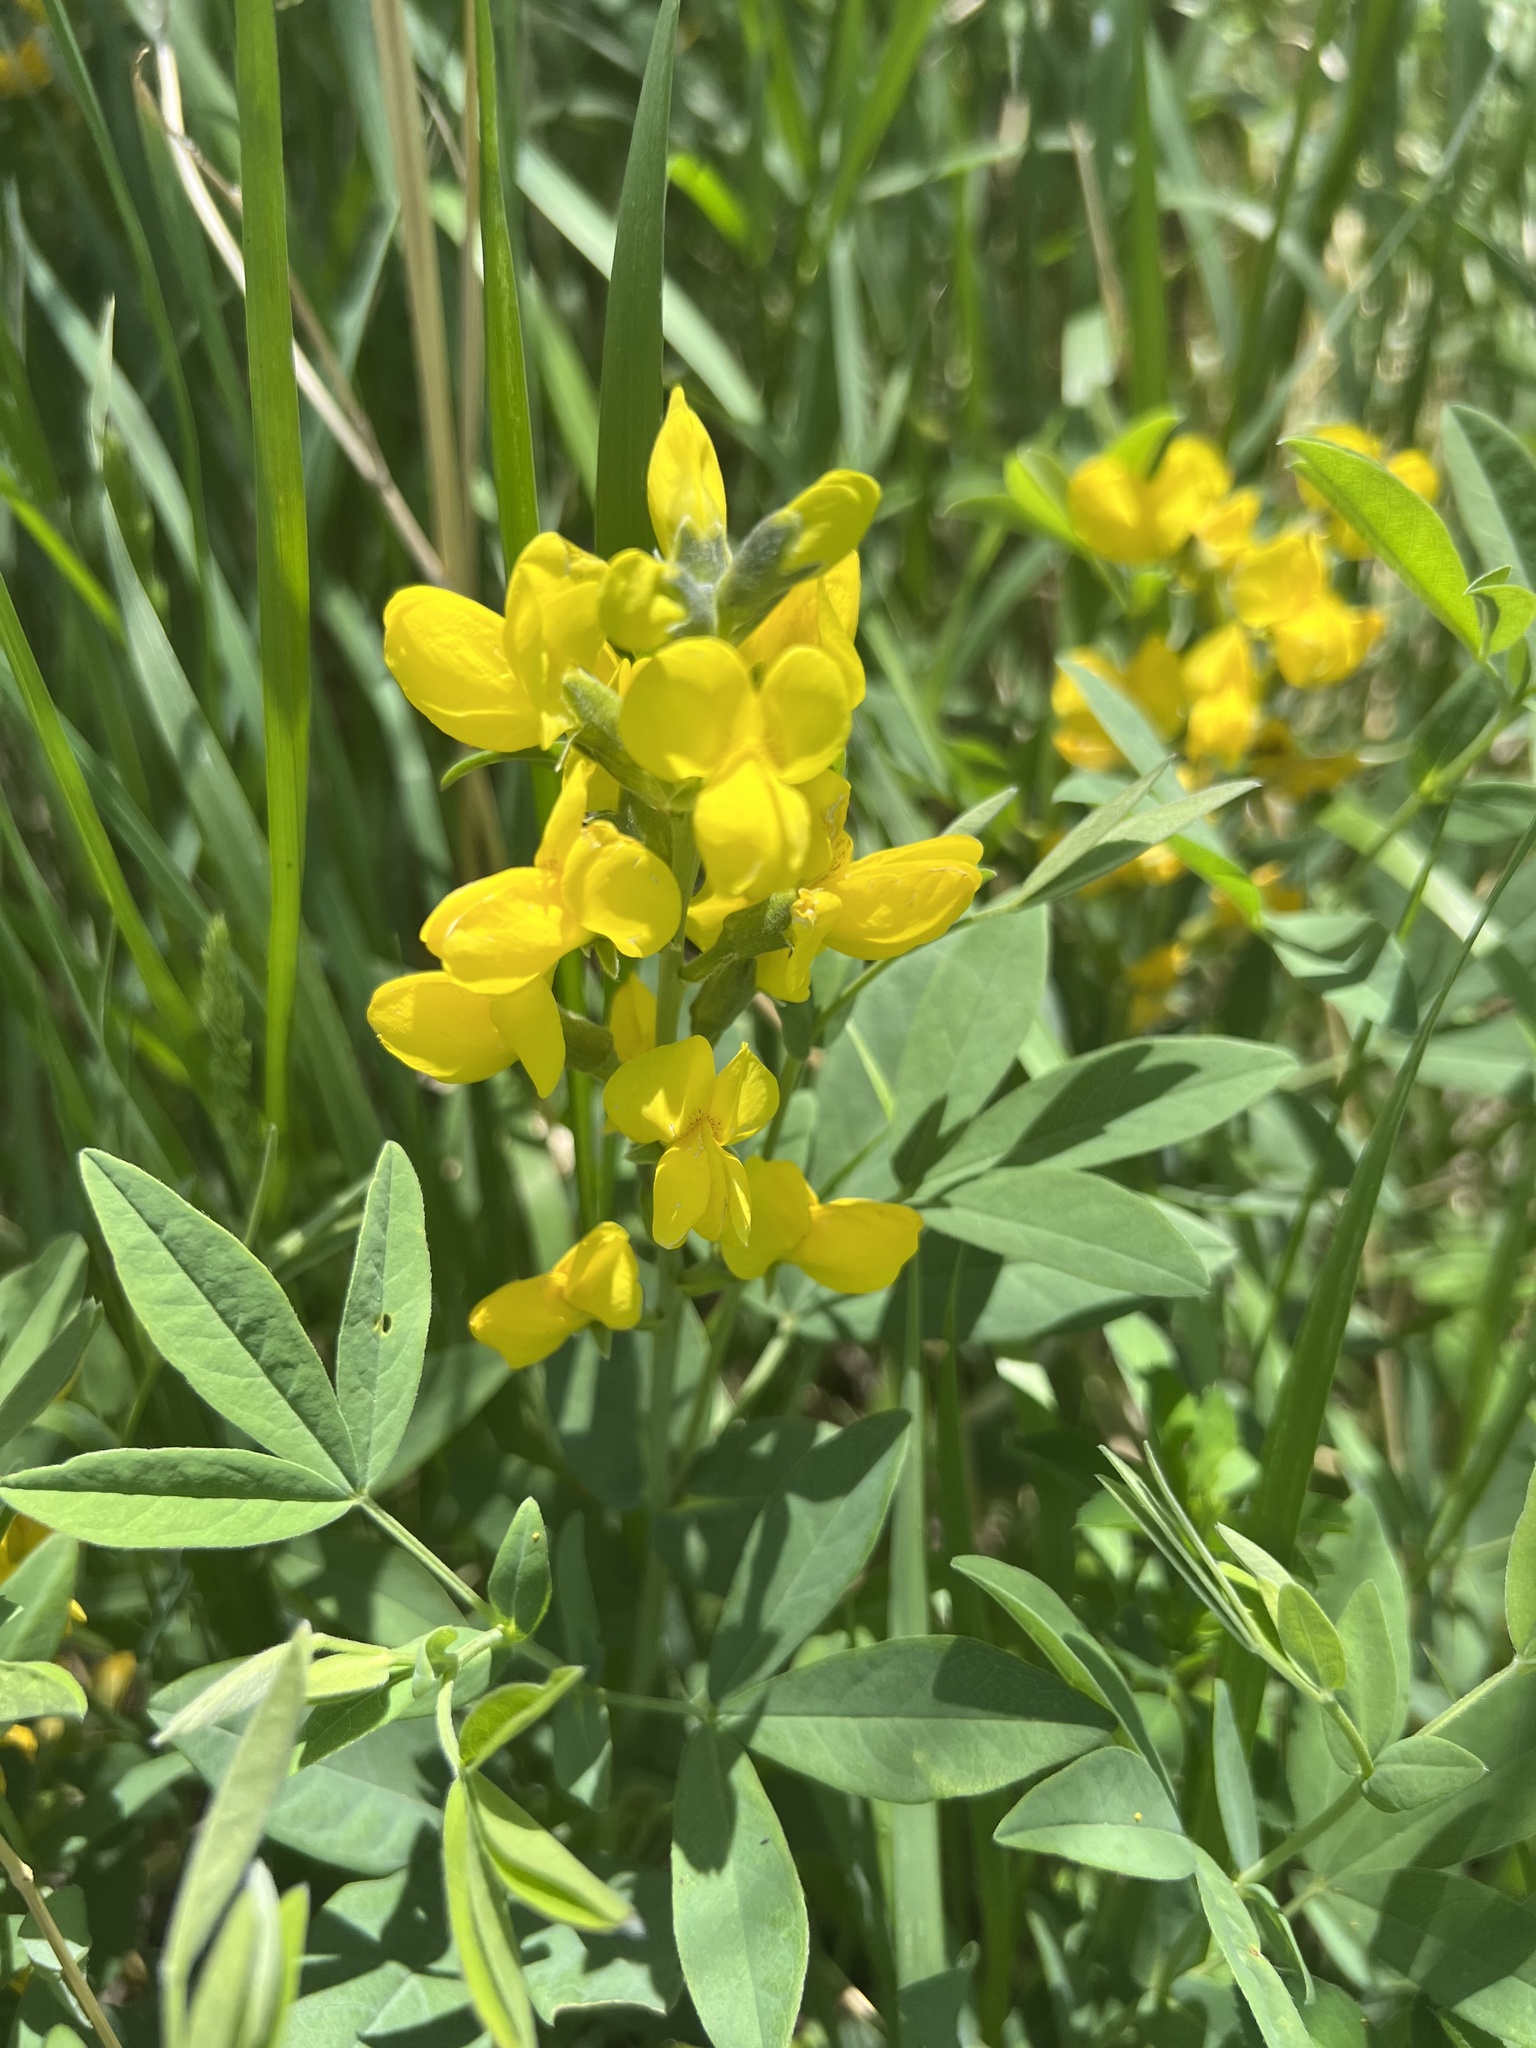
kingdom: Plantae
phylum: Tracheophyta
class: Magnoliopsida
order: Fabales
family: Fabaceae
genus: Thermopsis
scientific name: Thermopsis rhombifolia
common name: Circle-pod-pea
